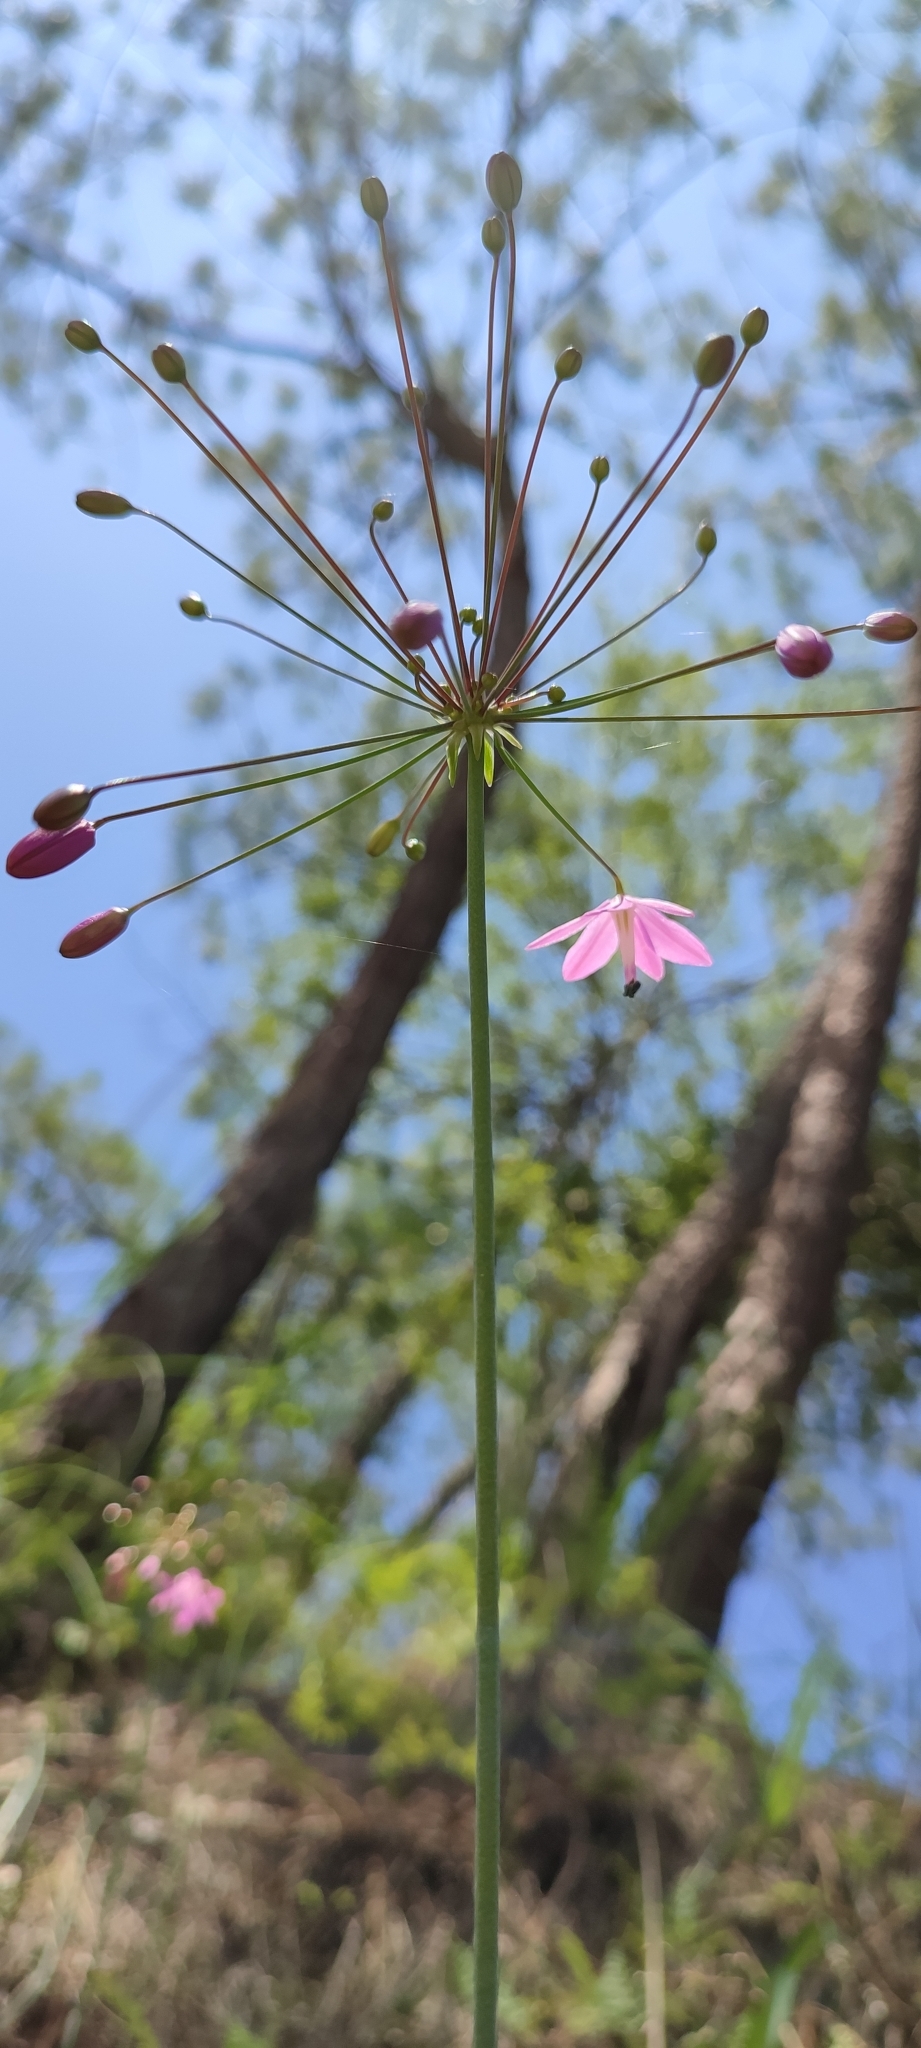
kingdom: Plantae
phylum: Tracheophyta
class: Liliopsida
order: Asparagales
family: Asparagaceae
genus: Bessera
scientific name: Bessera tuitensis
